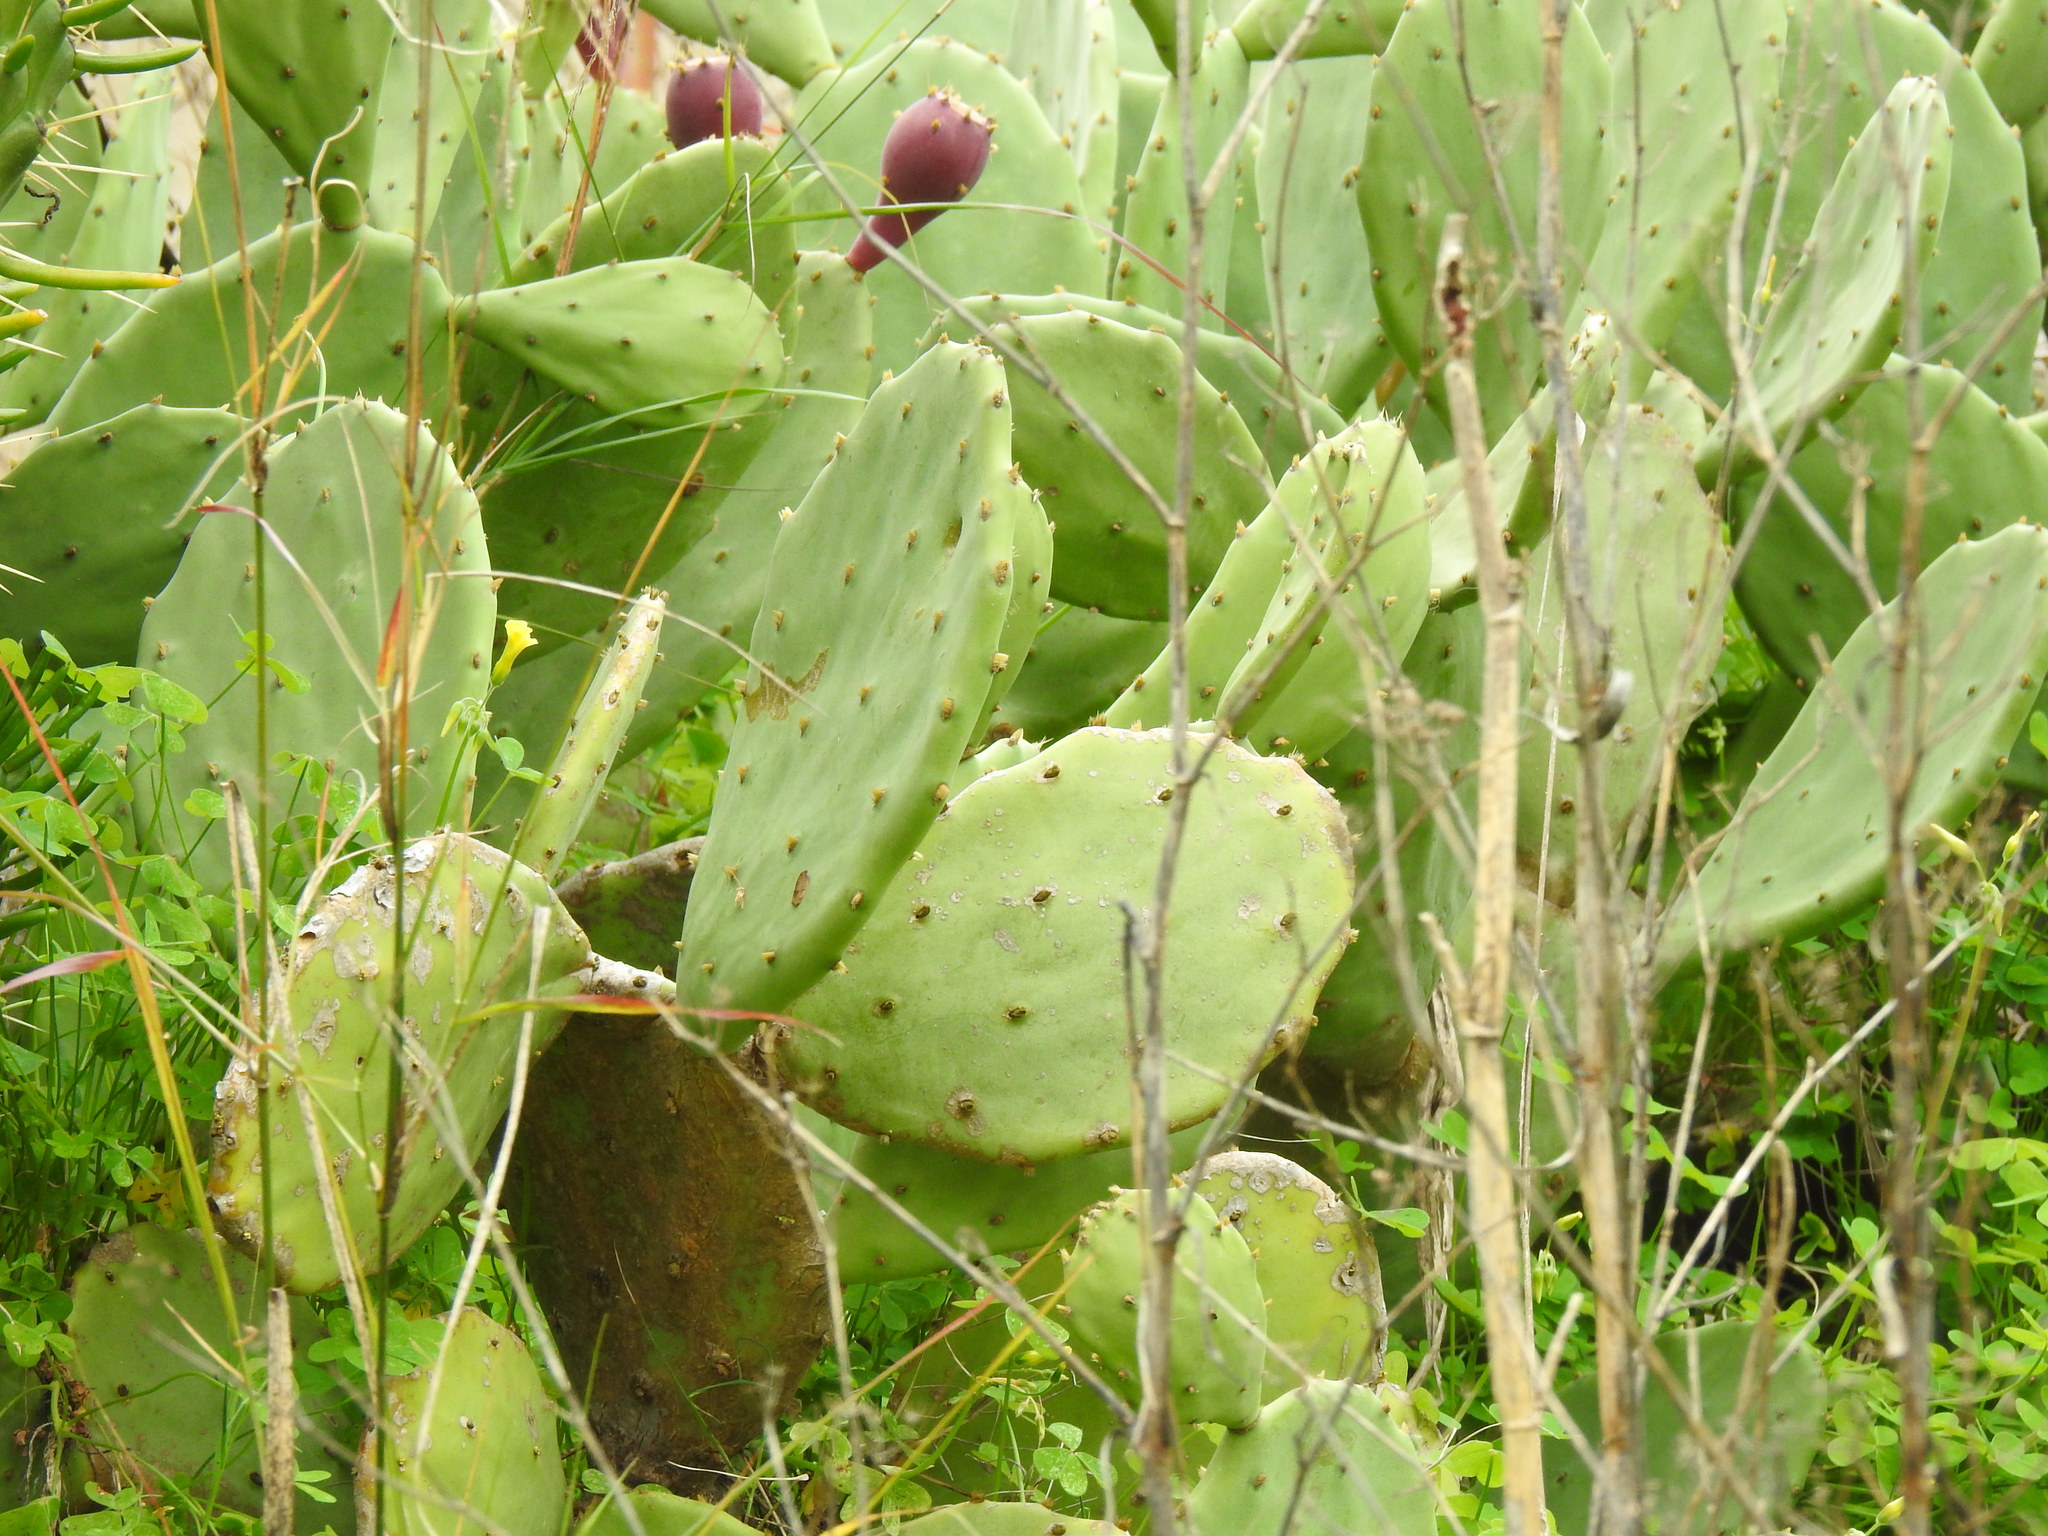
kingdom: Plantae
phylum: Tracheophyta
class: Magnoliopsida
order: Caryophyllales
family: Cactaceae
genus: Opuntia
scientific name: Opuntia anahuacensis
